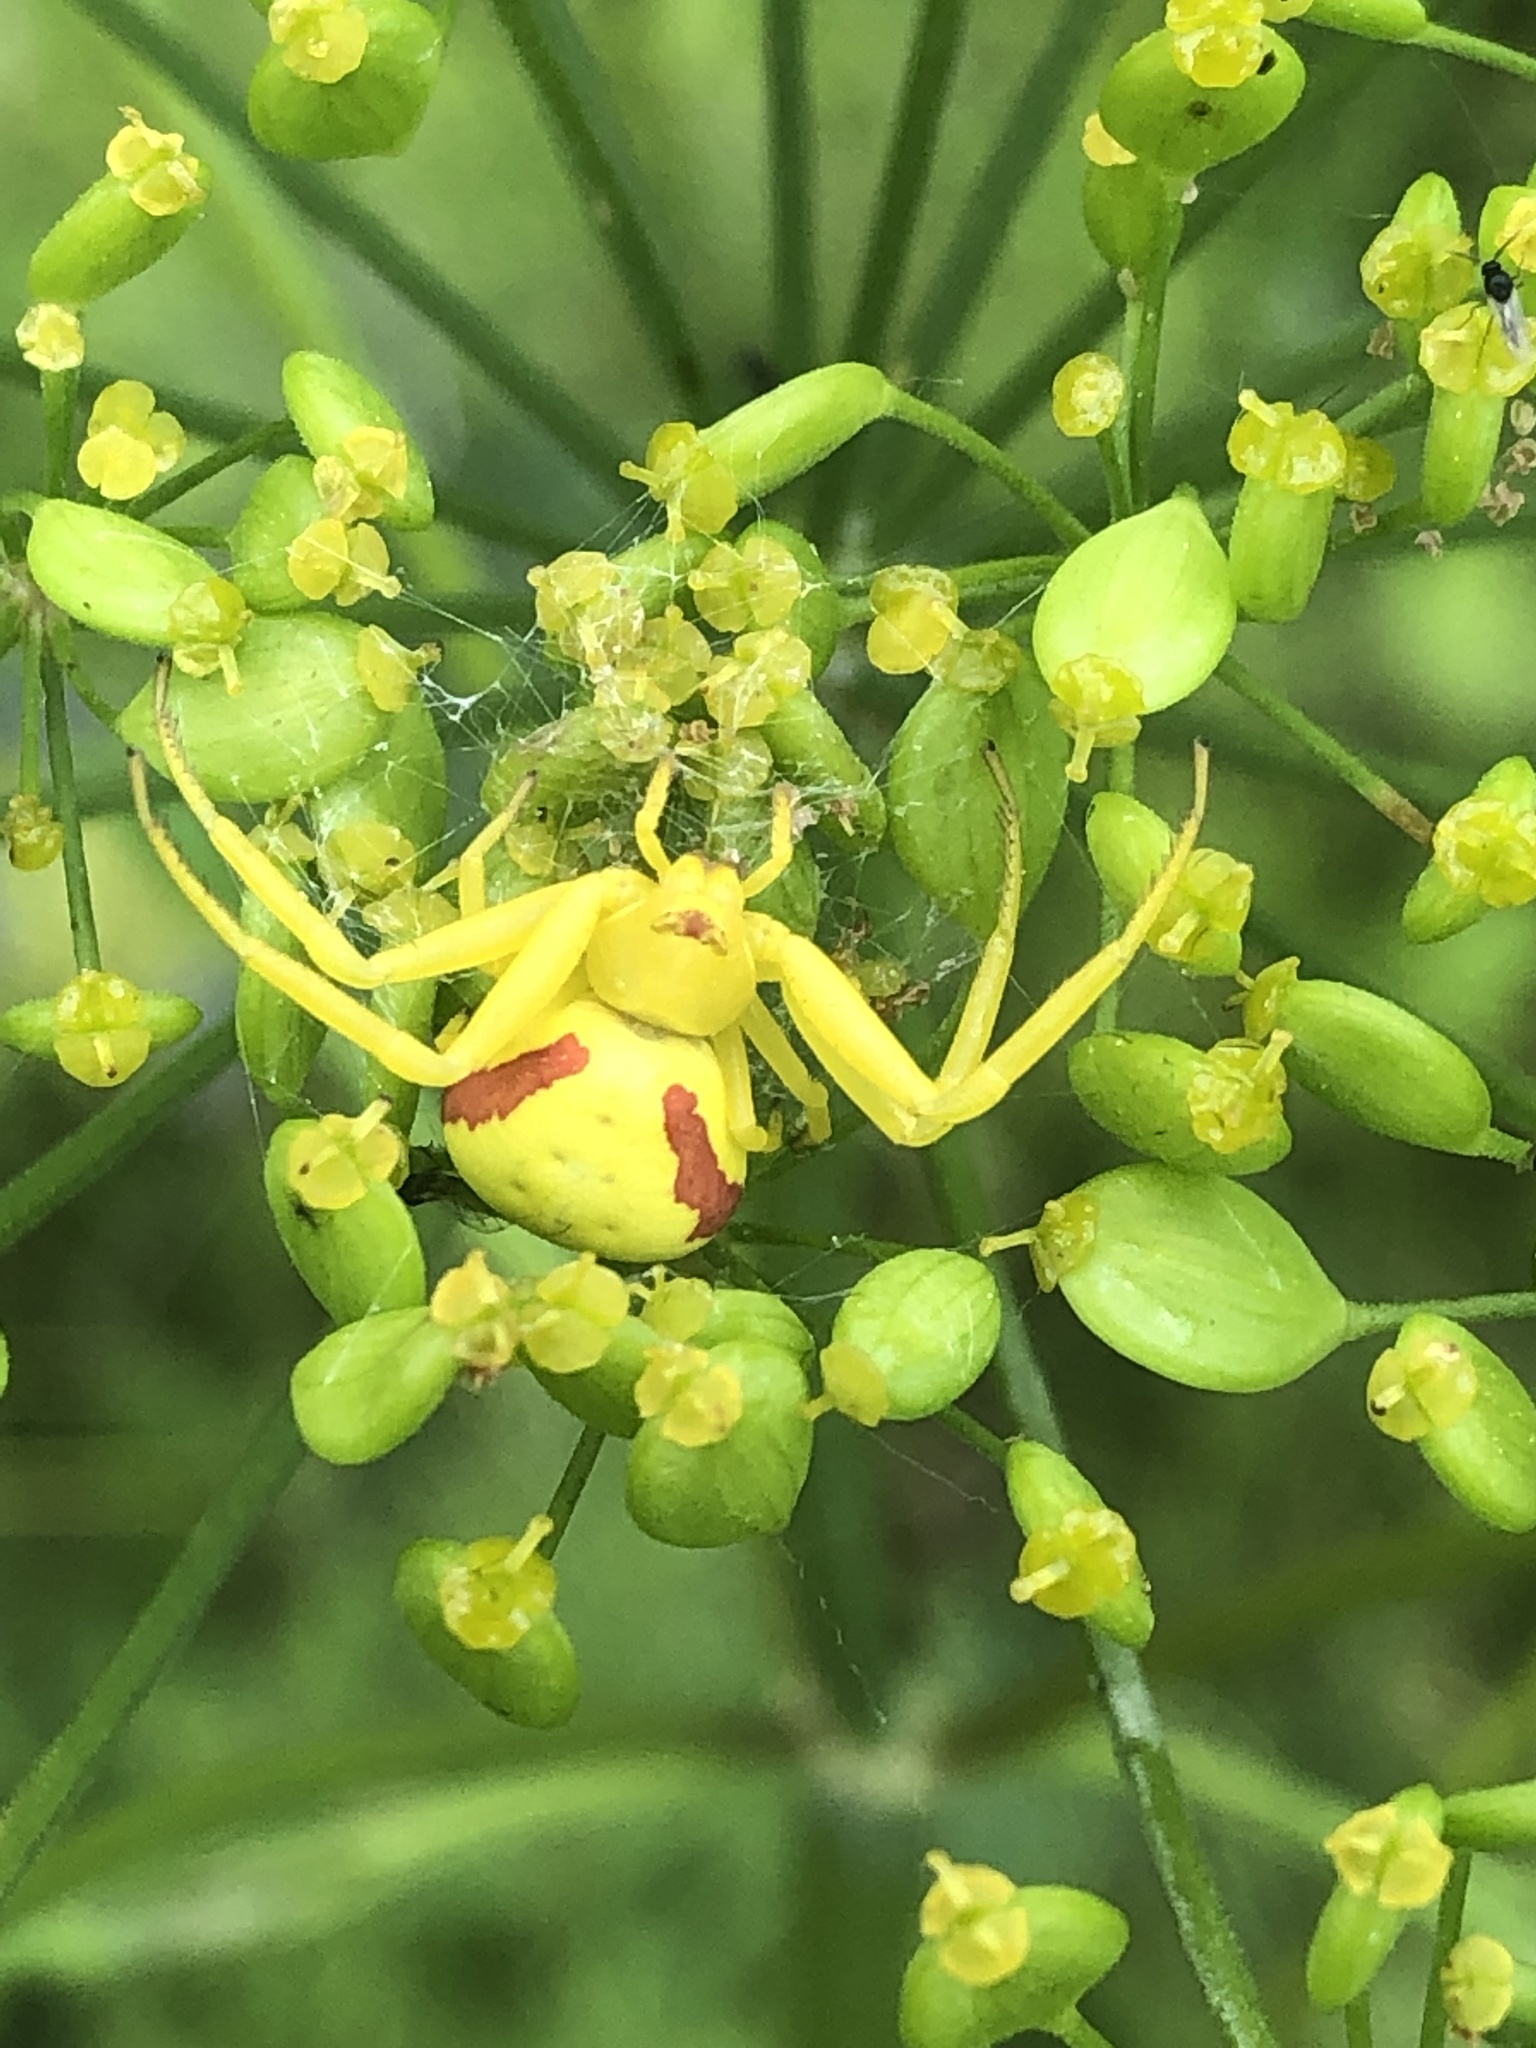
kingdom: Animalia
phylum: Arthropoda
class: Arachnida
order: Araneae
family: Thomisidae
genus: Misumena
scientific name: Misumena vatia
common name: Goldenrod crab spider
